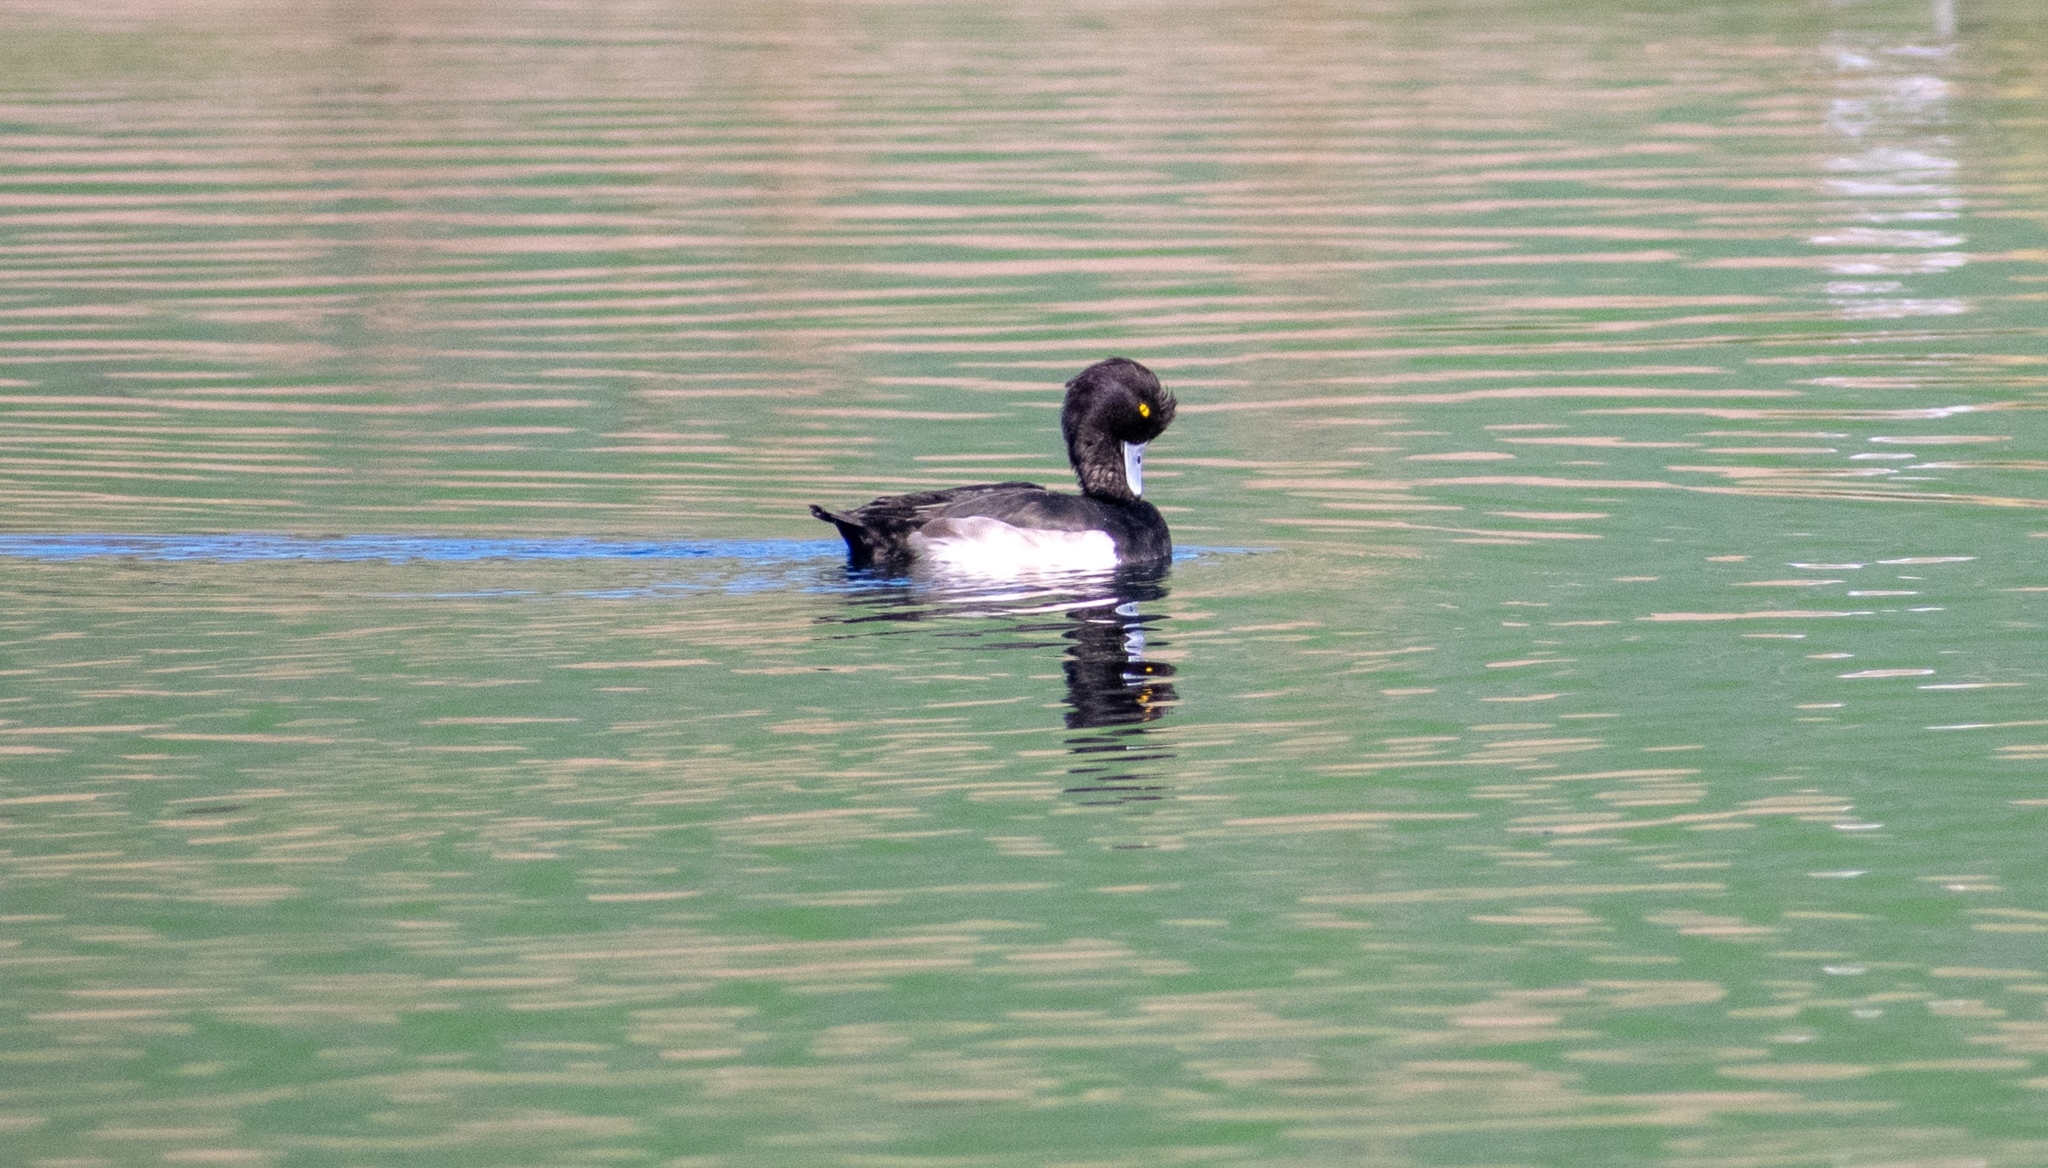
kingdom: Animalia
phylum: Chordata
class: Aves
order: Anseriformes
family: Anatidae
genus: Aythya
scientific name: Aythya fuligula
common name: Tufted duck
